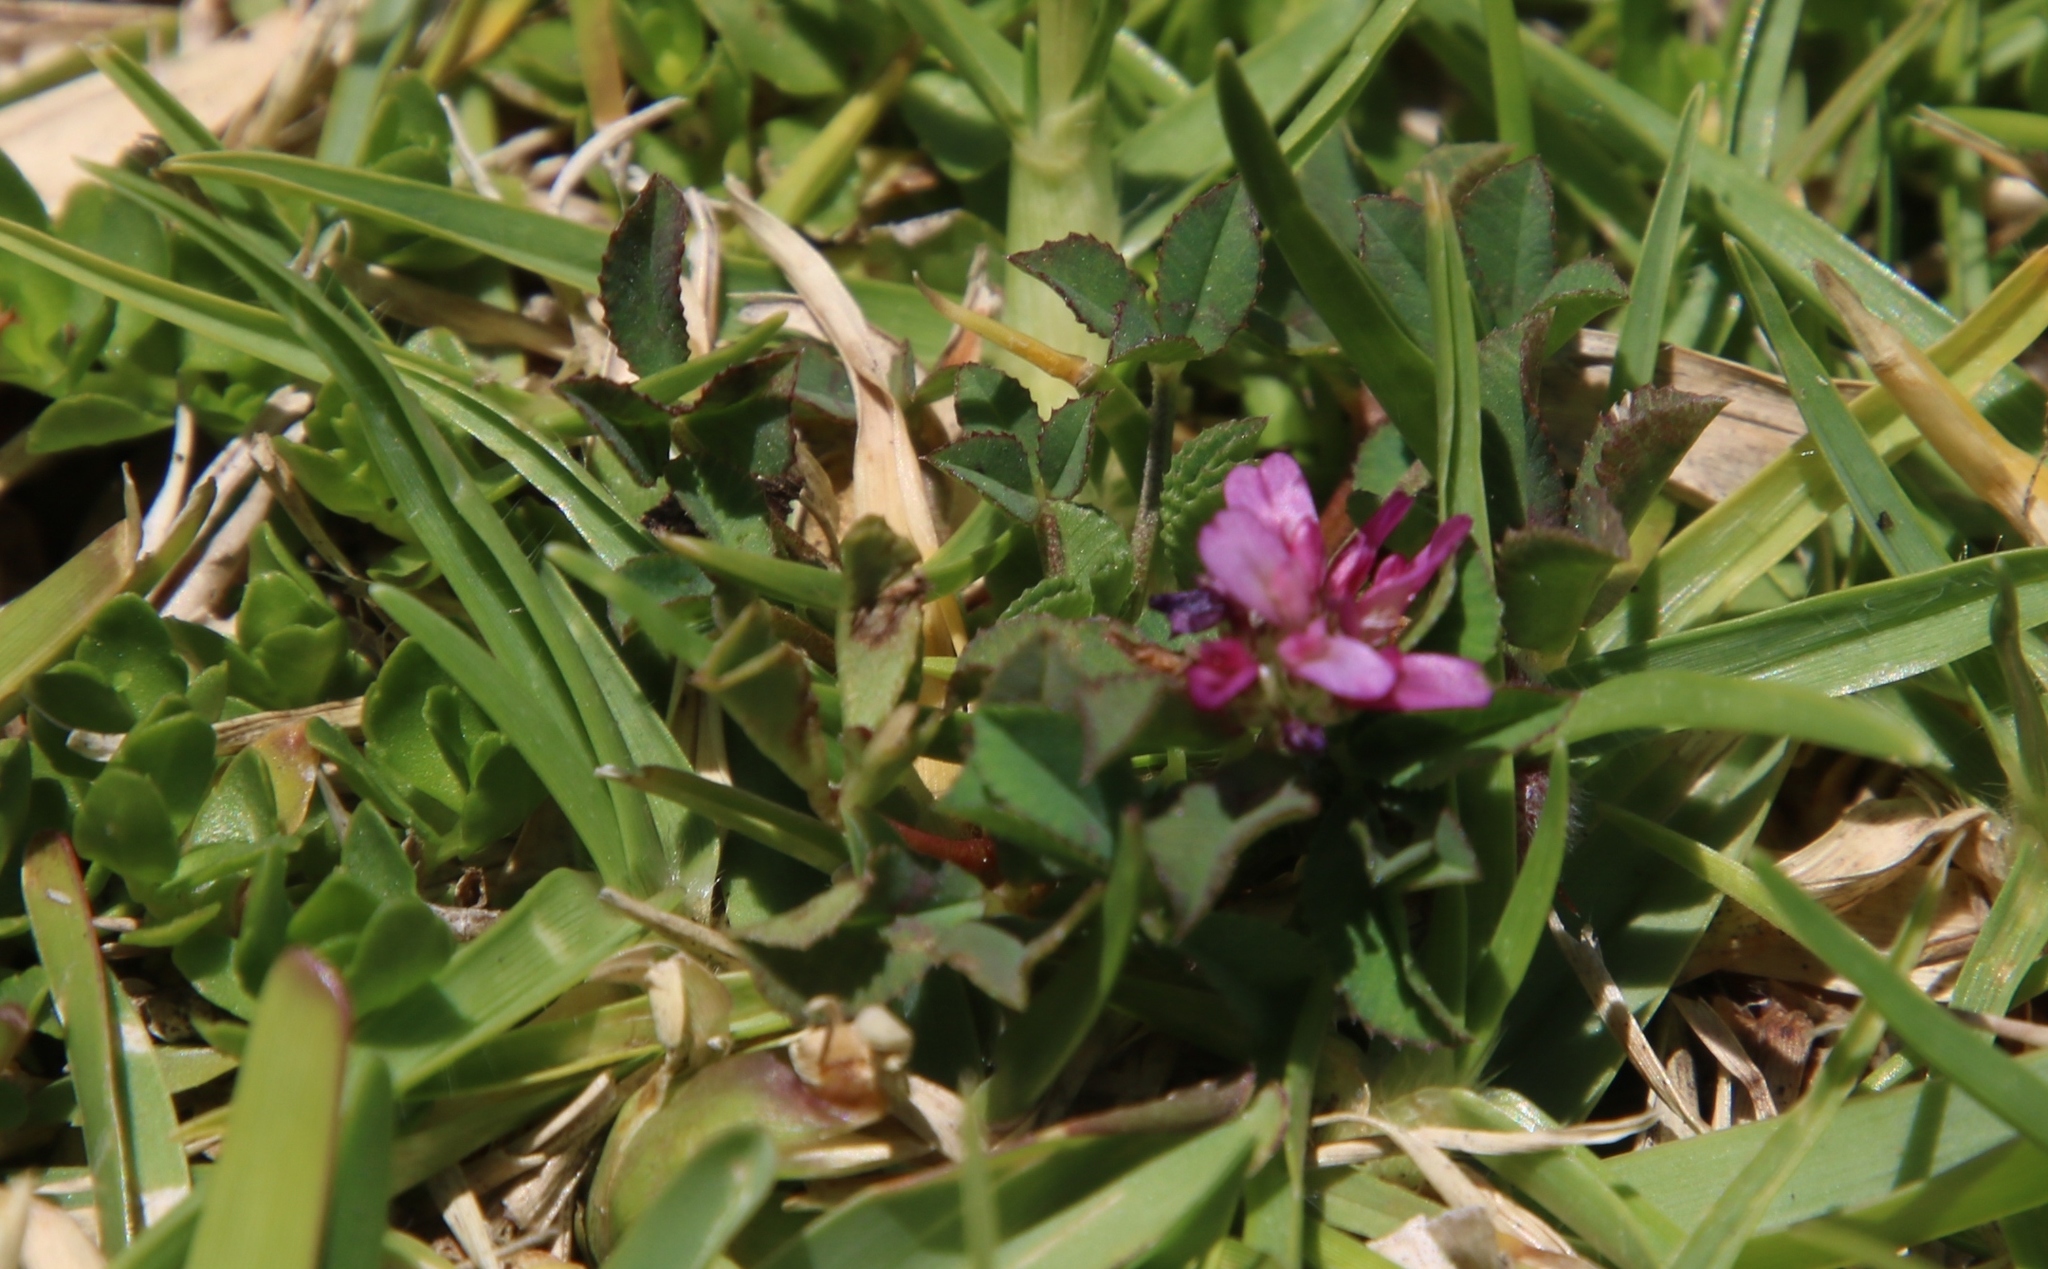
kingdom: Plantae
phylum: Tracheophyta
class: Magnoliopsida
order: Fabales
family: Fabaceae
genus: Trifolium
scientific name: Trifolium resupinatum
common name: Reversed clover
